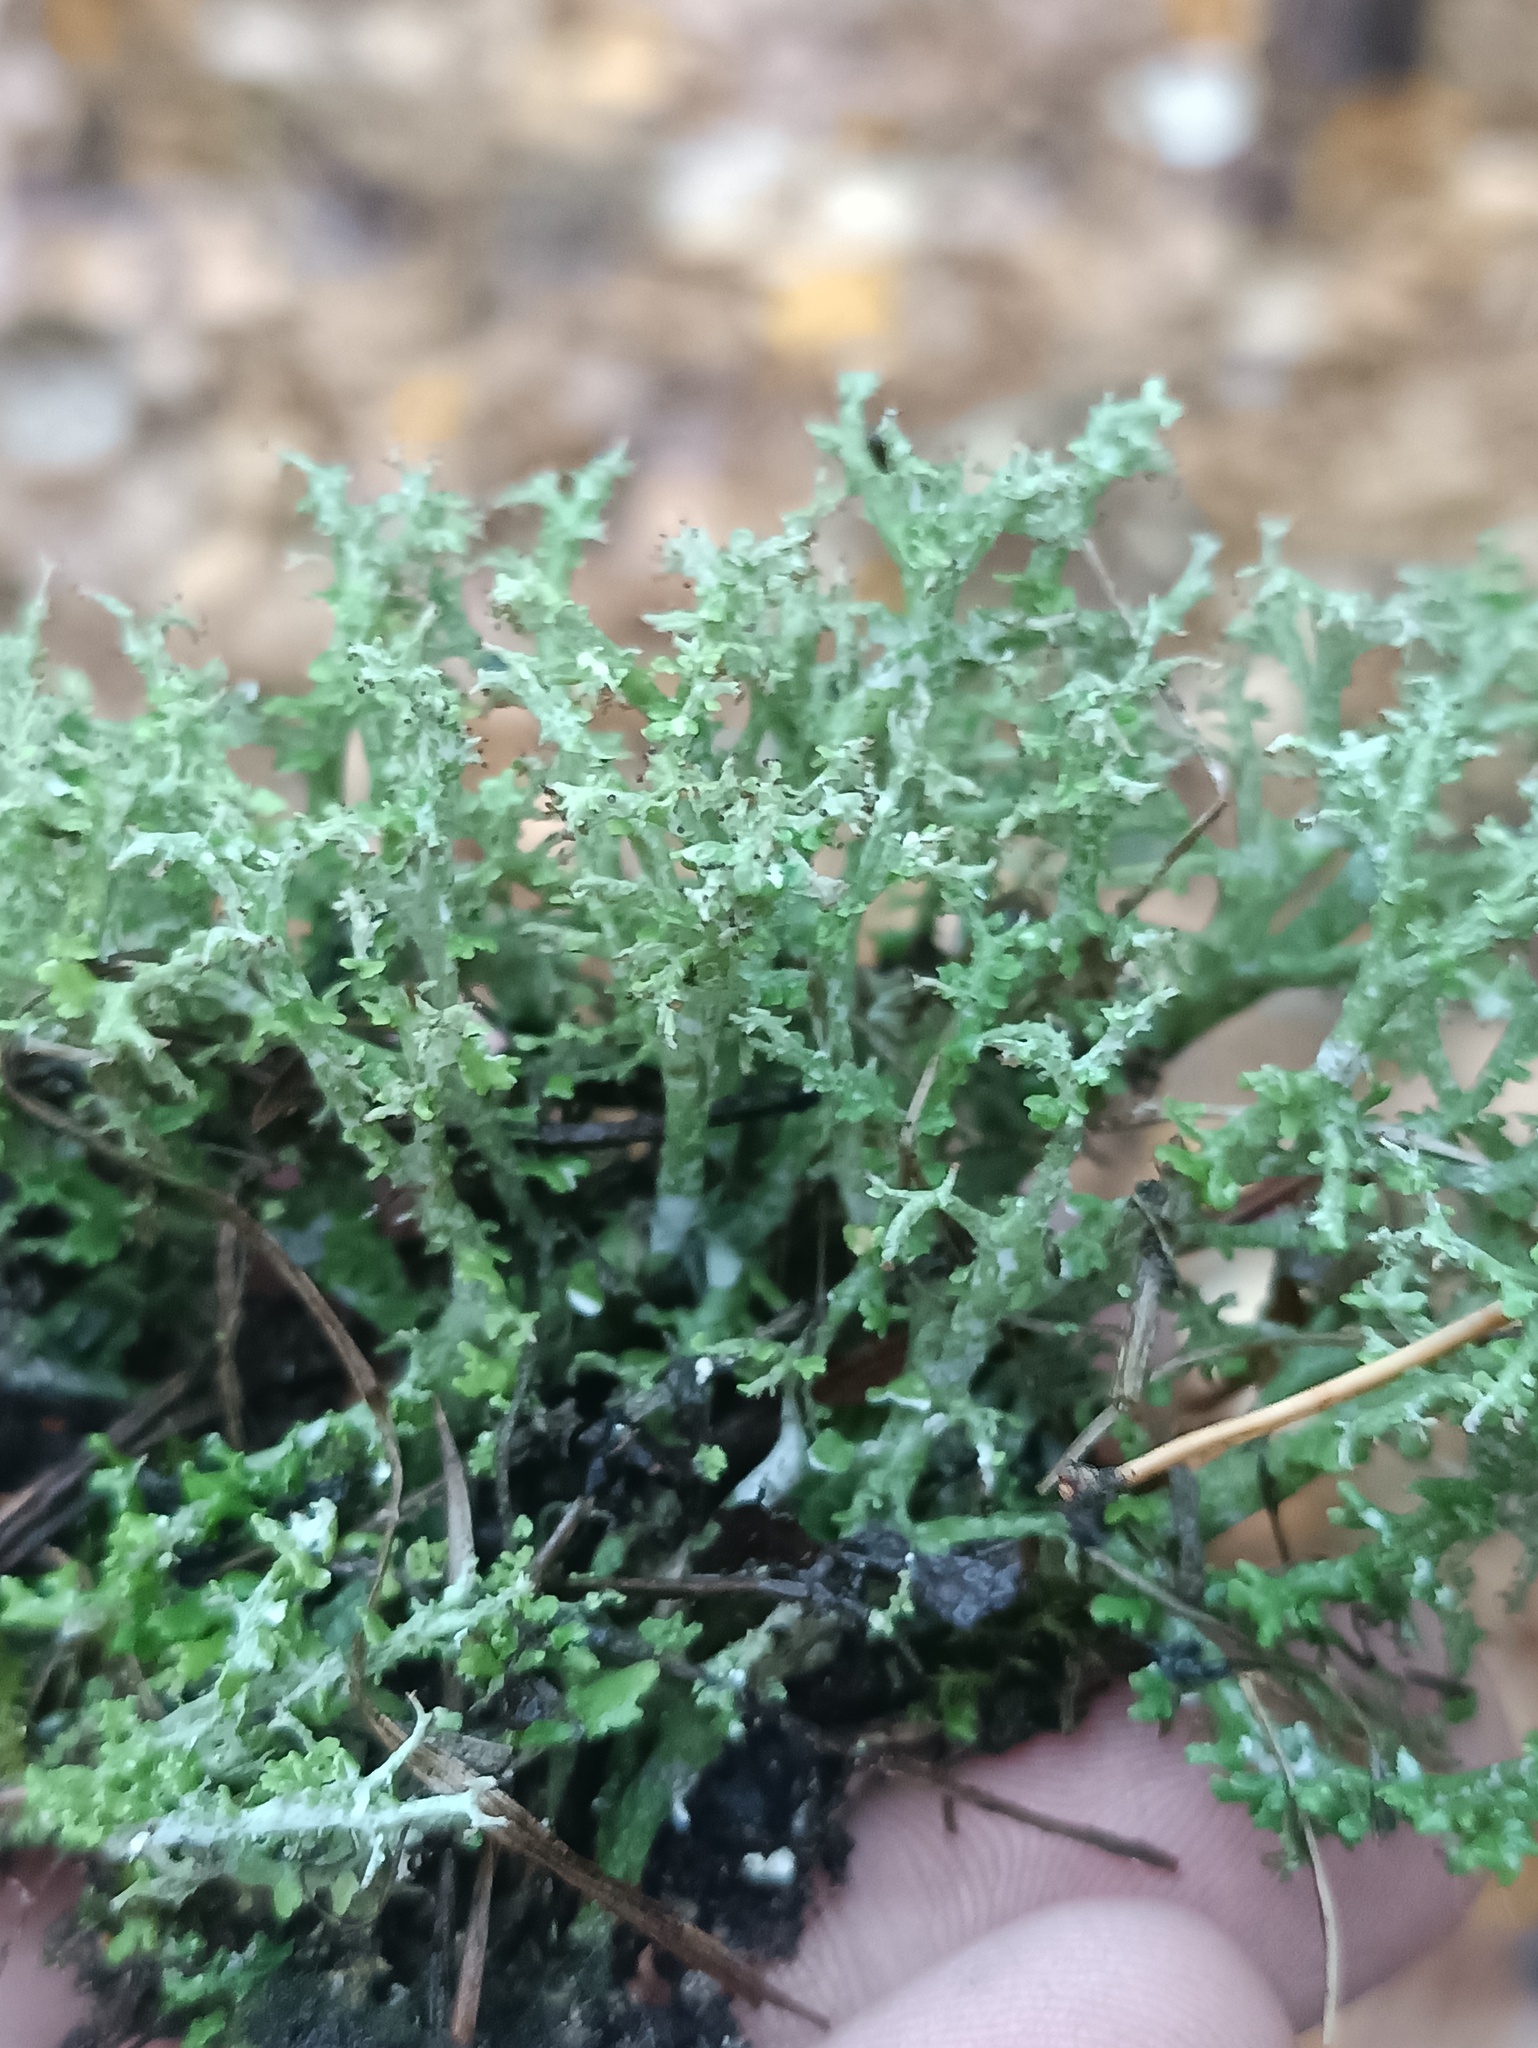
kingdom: Fungi
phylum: Ascomycota
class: Lecanoromycetes
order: Lecanorales
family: Cladoniaceae
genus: Cladonia
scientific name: Cladonia furcata
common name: Many-forked cladonia
